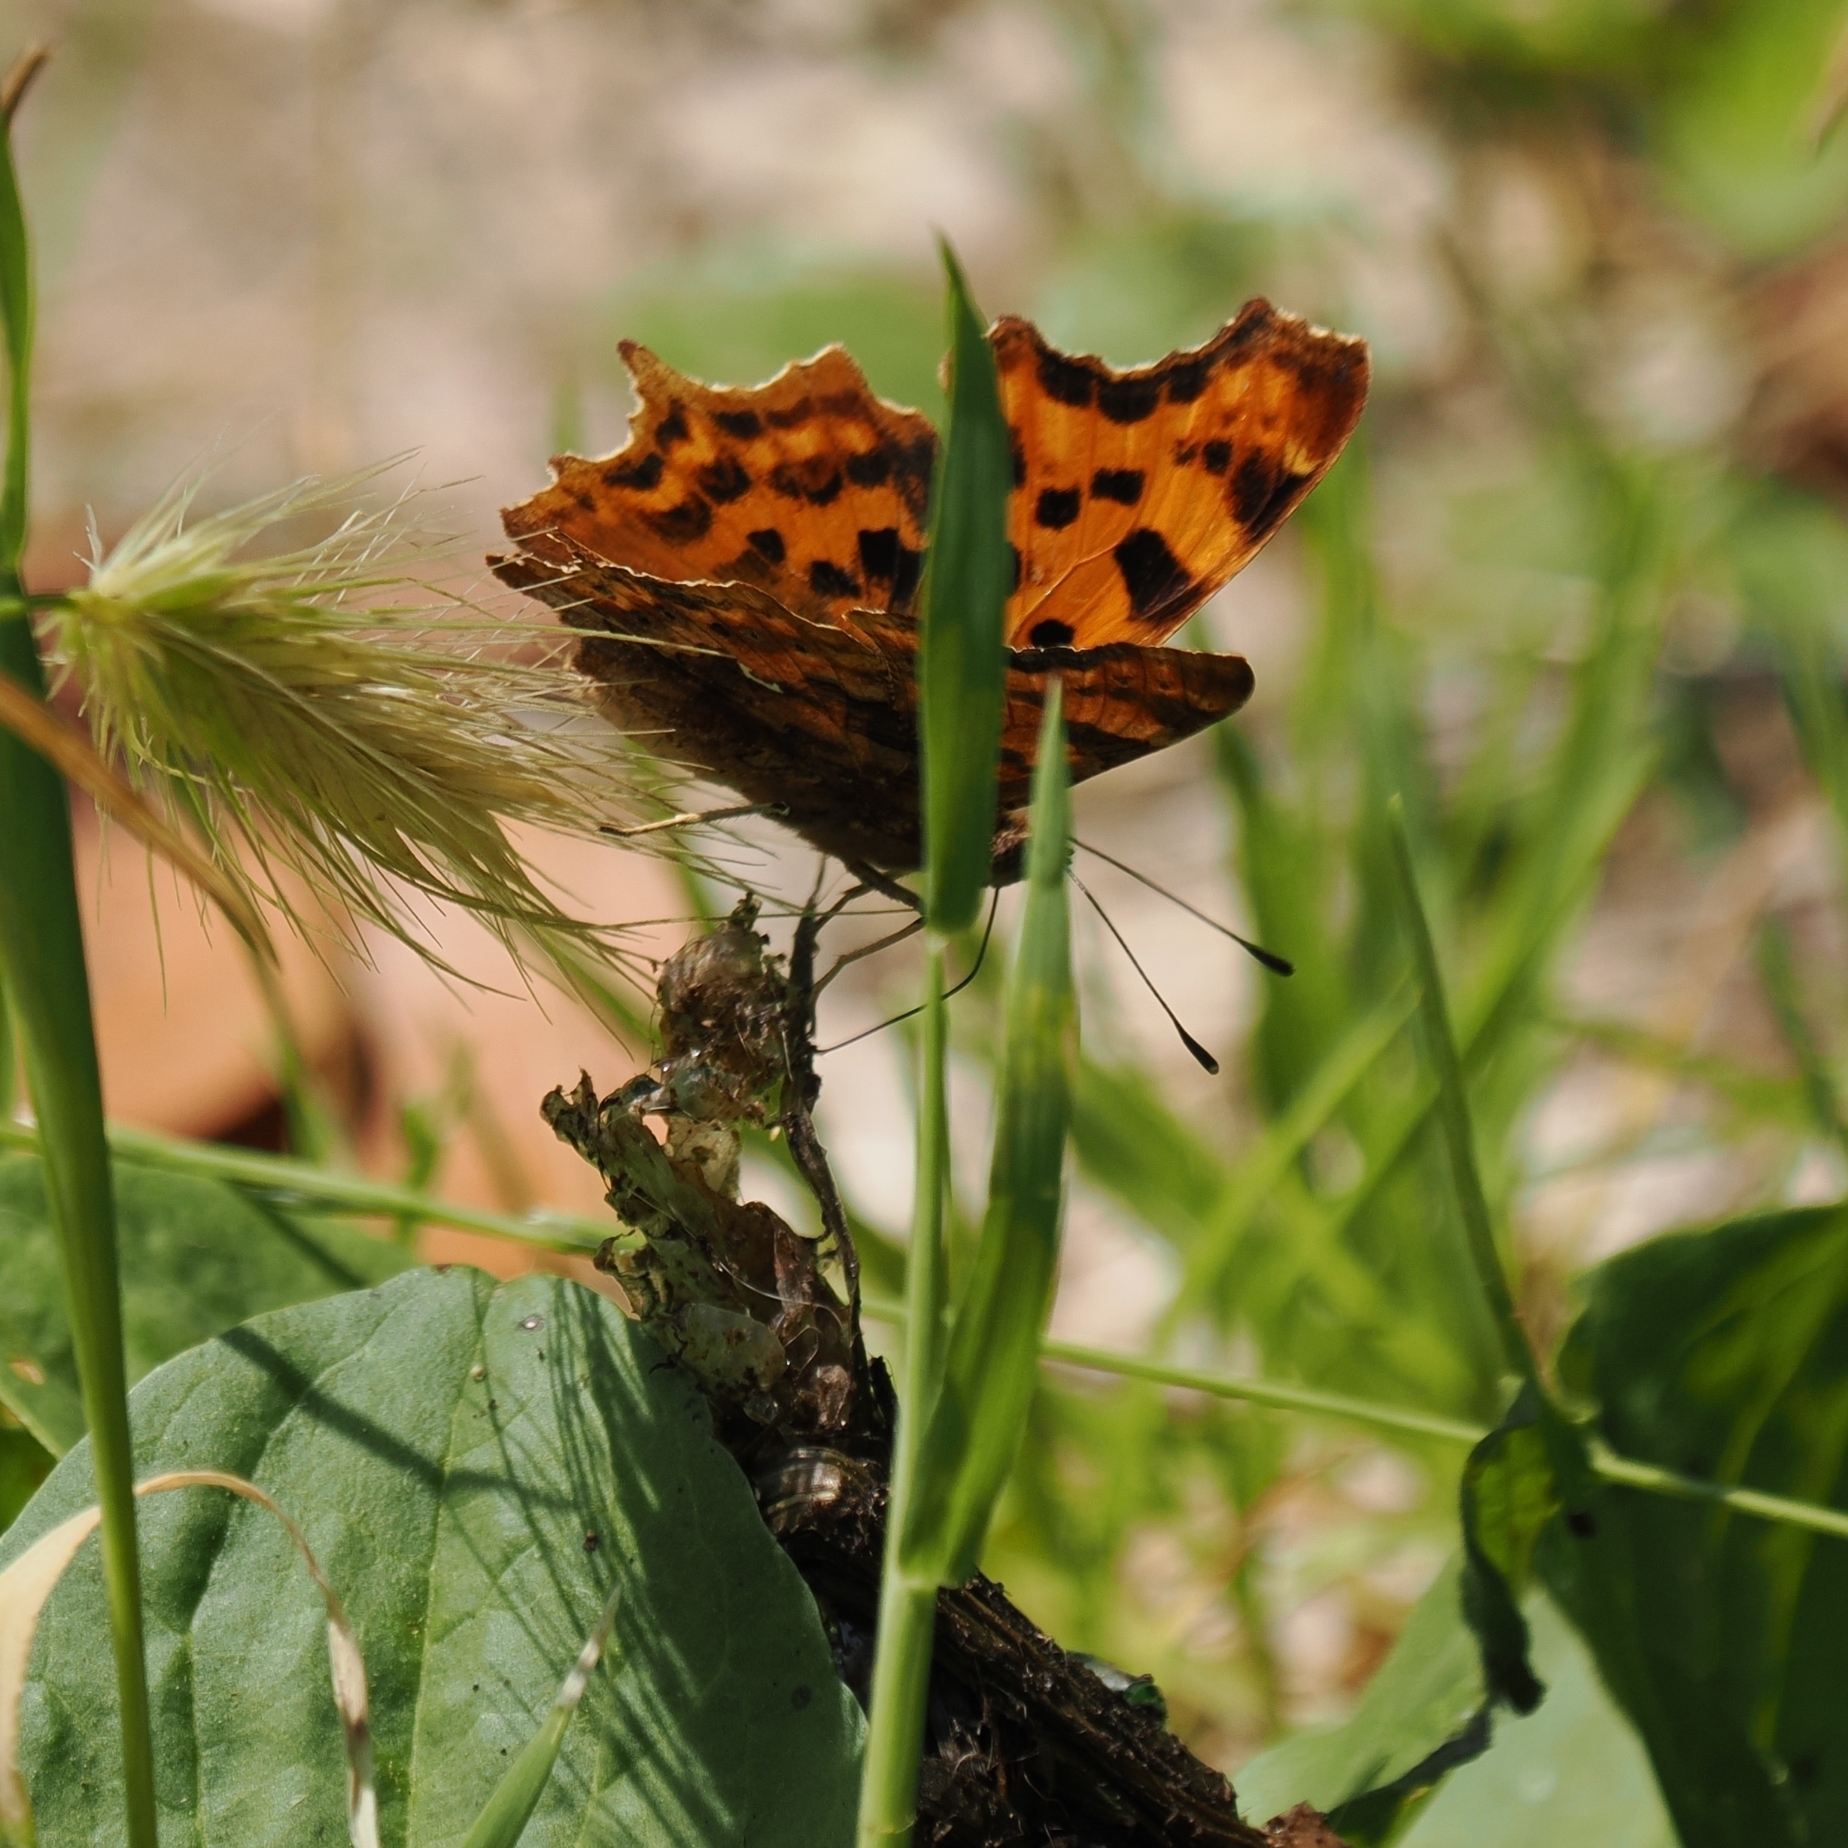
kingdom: Animalia
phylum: Arthropoda
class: Insecta
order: Lepidoptera
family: Nymphalidae
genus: Polygonia
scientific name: Polygonia c-album
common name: Comma
